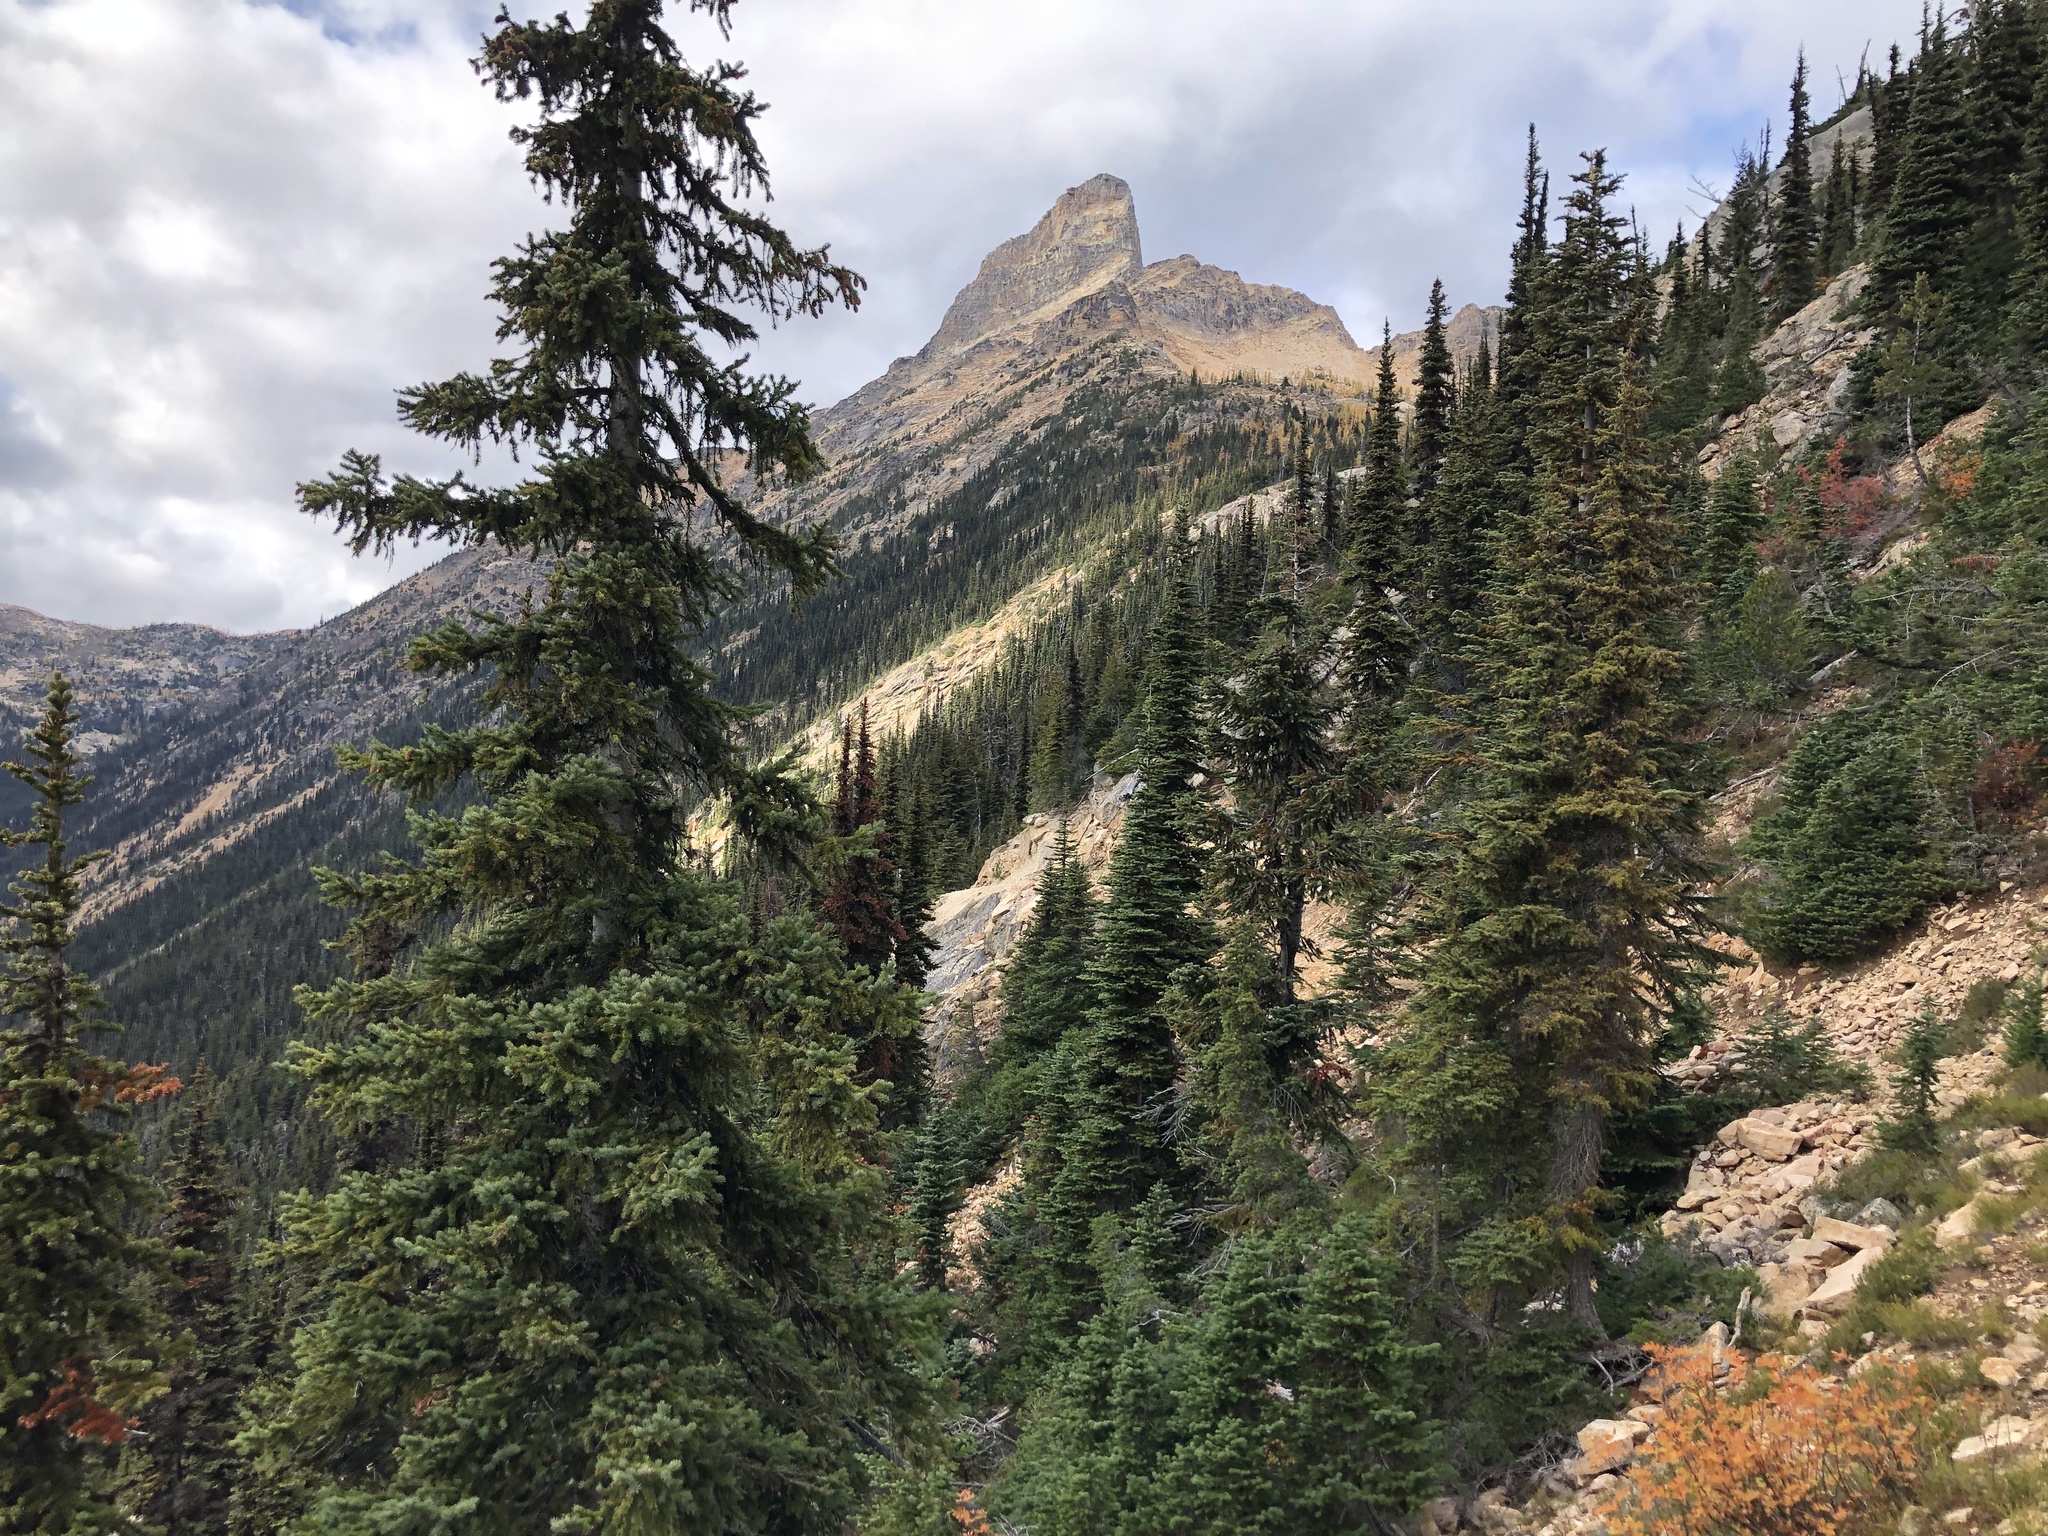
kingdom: Plantae
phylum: Tracheophyta
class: Pinopsida
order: Pinales
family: Pinaceae
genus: Picea
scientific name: Picea engelmannii
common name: Engelmann spruce
